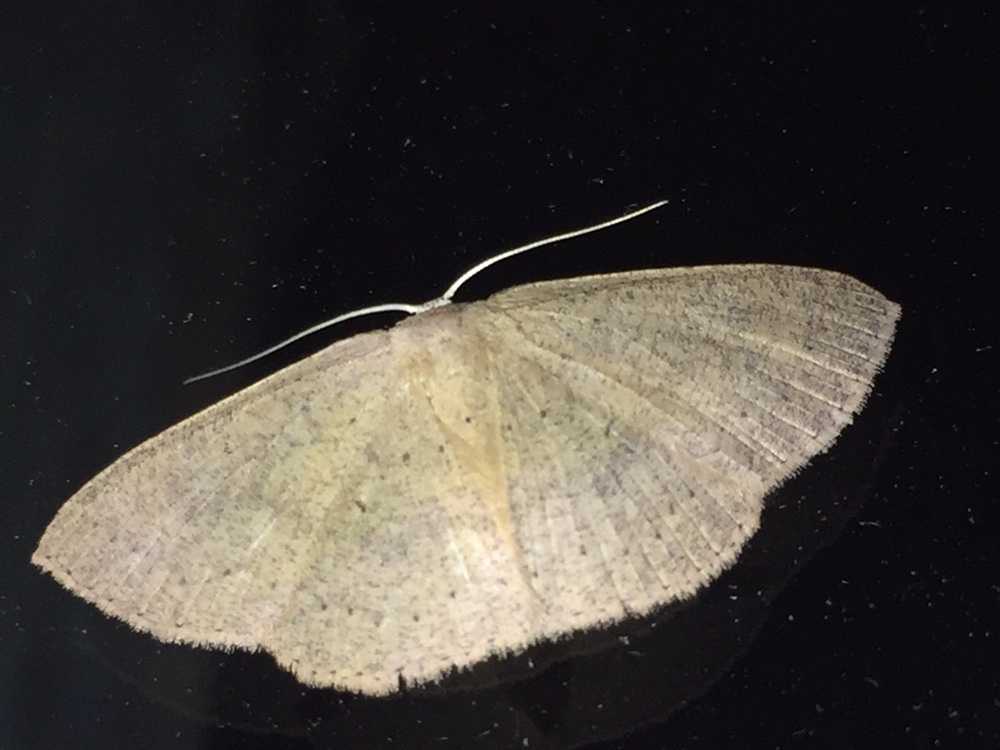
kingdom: Animalia
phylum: Arthropoda
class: Insecta
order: Lepidoptera
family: Geometridae
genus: Cyclophora
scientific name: Cyclophora obstataria
